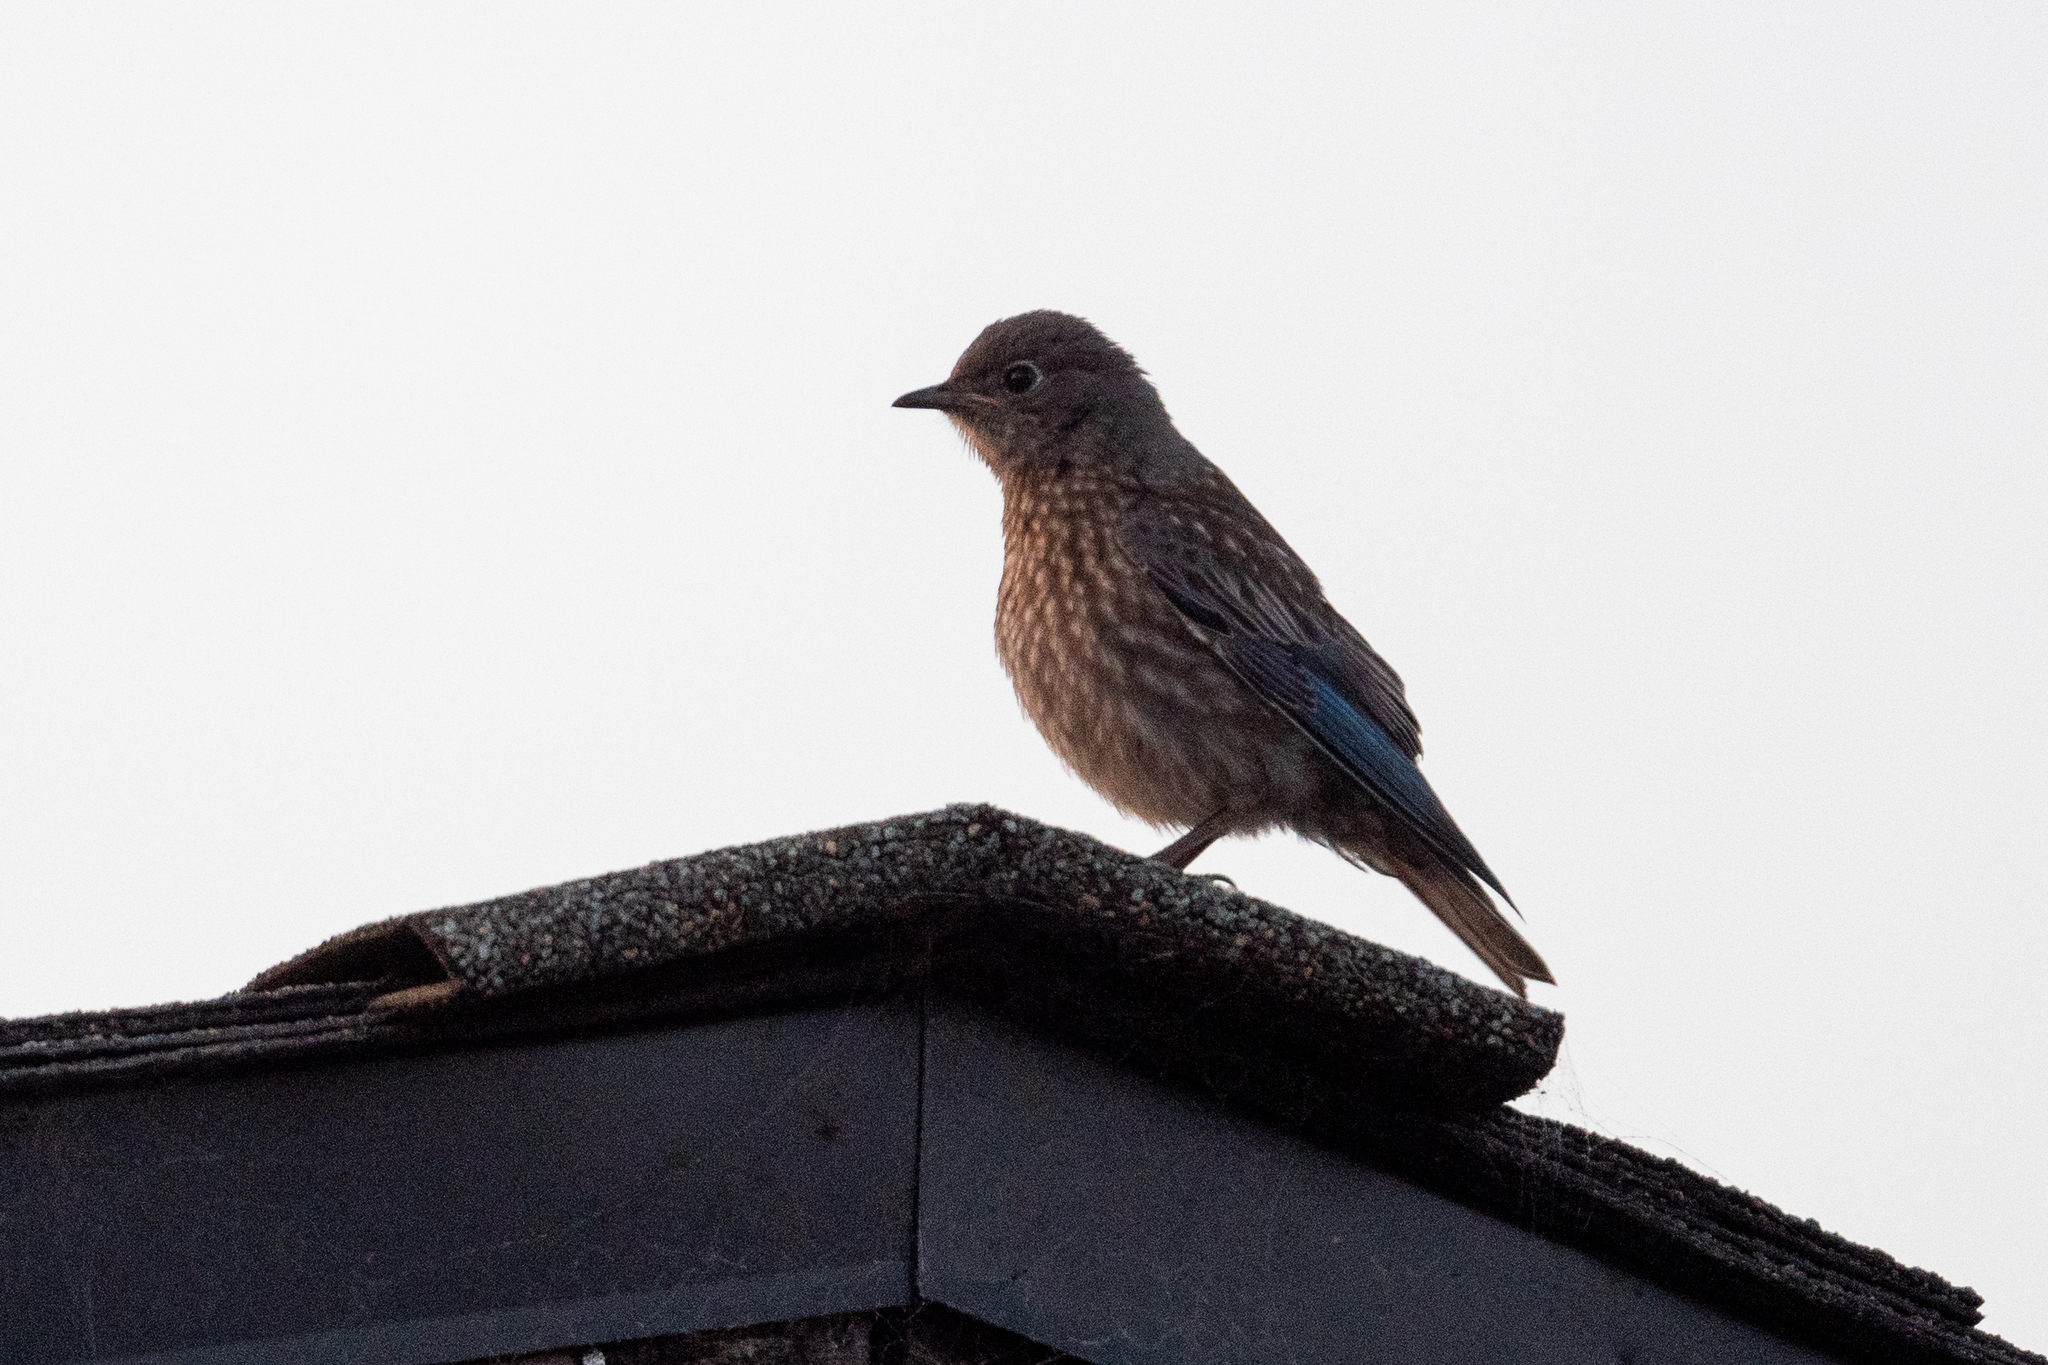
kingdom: Animalia
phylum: Chordata
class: Aves
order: Passeriformes
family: Turdidae
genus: Sialia
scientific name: Sialia mexicana
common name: Western bluebird
